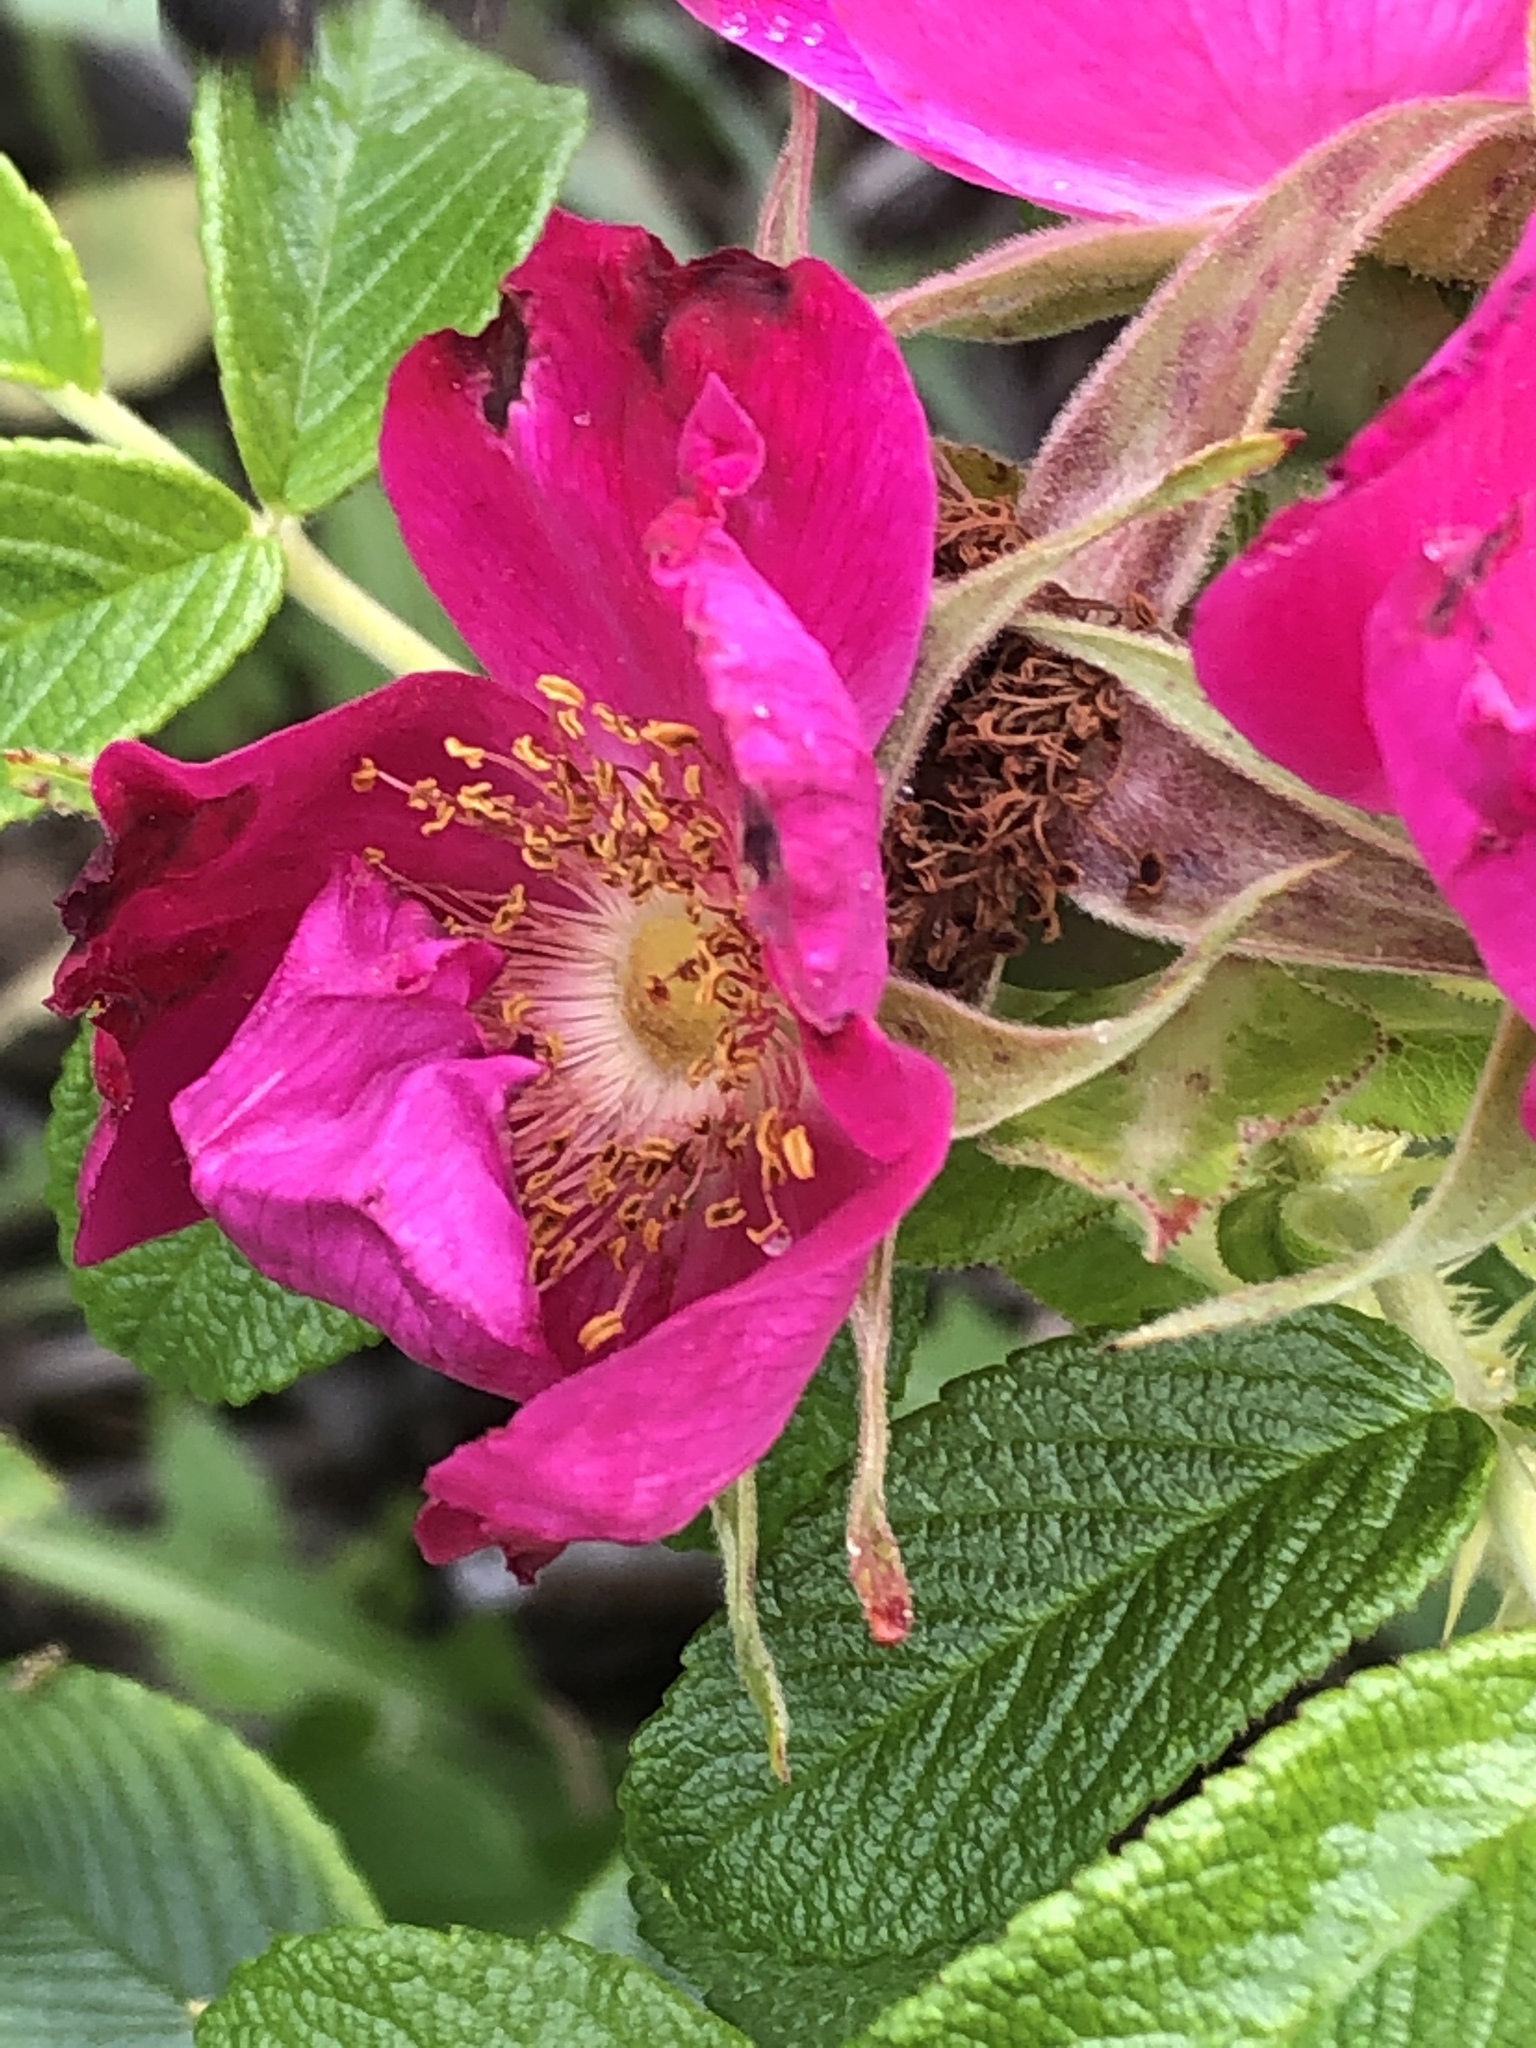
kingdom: Plantae
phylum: Tracheophyta
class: Magnoliopsida
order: Rosales
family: Rosaceae
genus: Rosa
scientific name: Rosa rugosa
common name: Japanese rose
